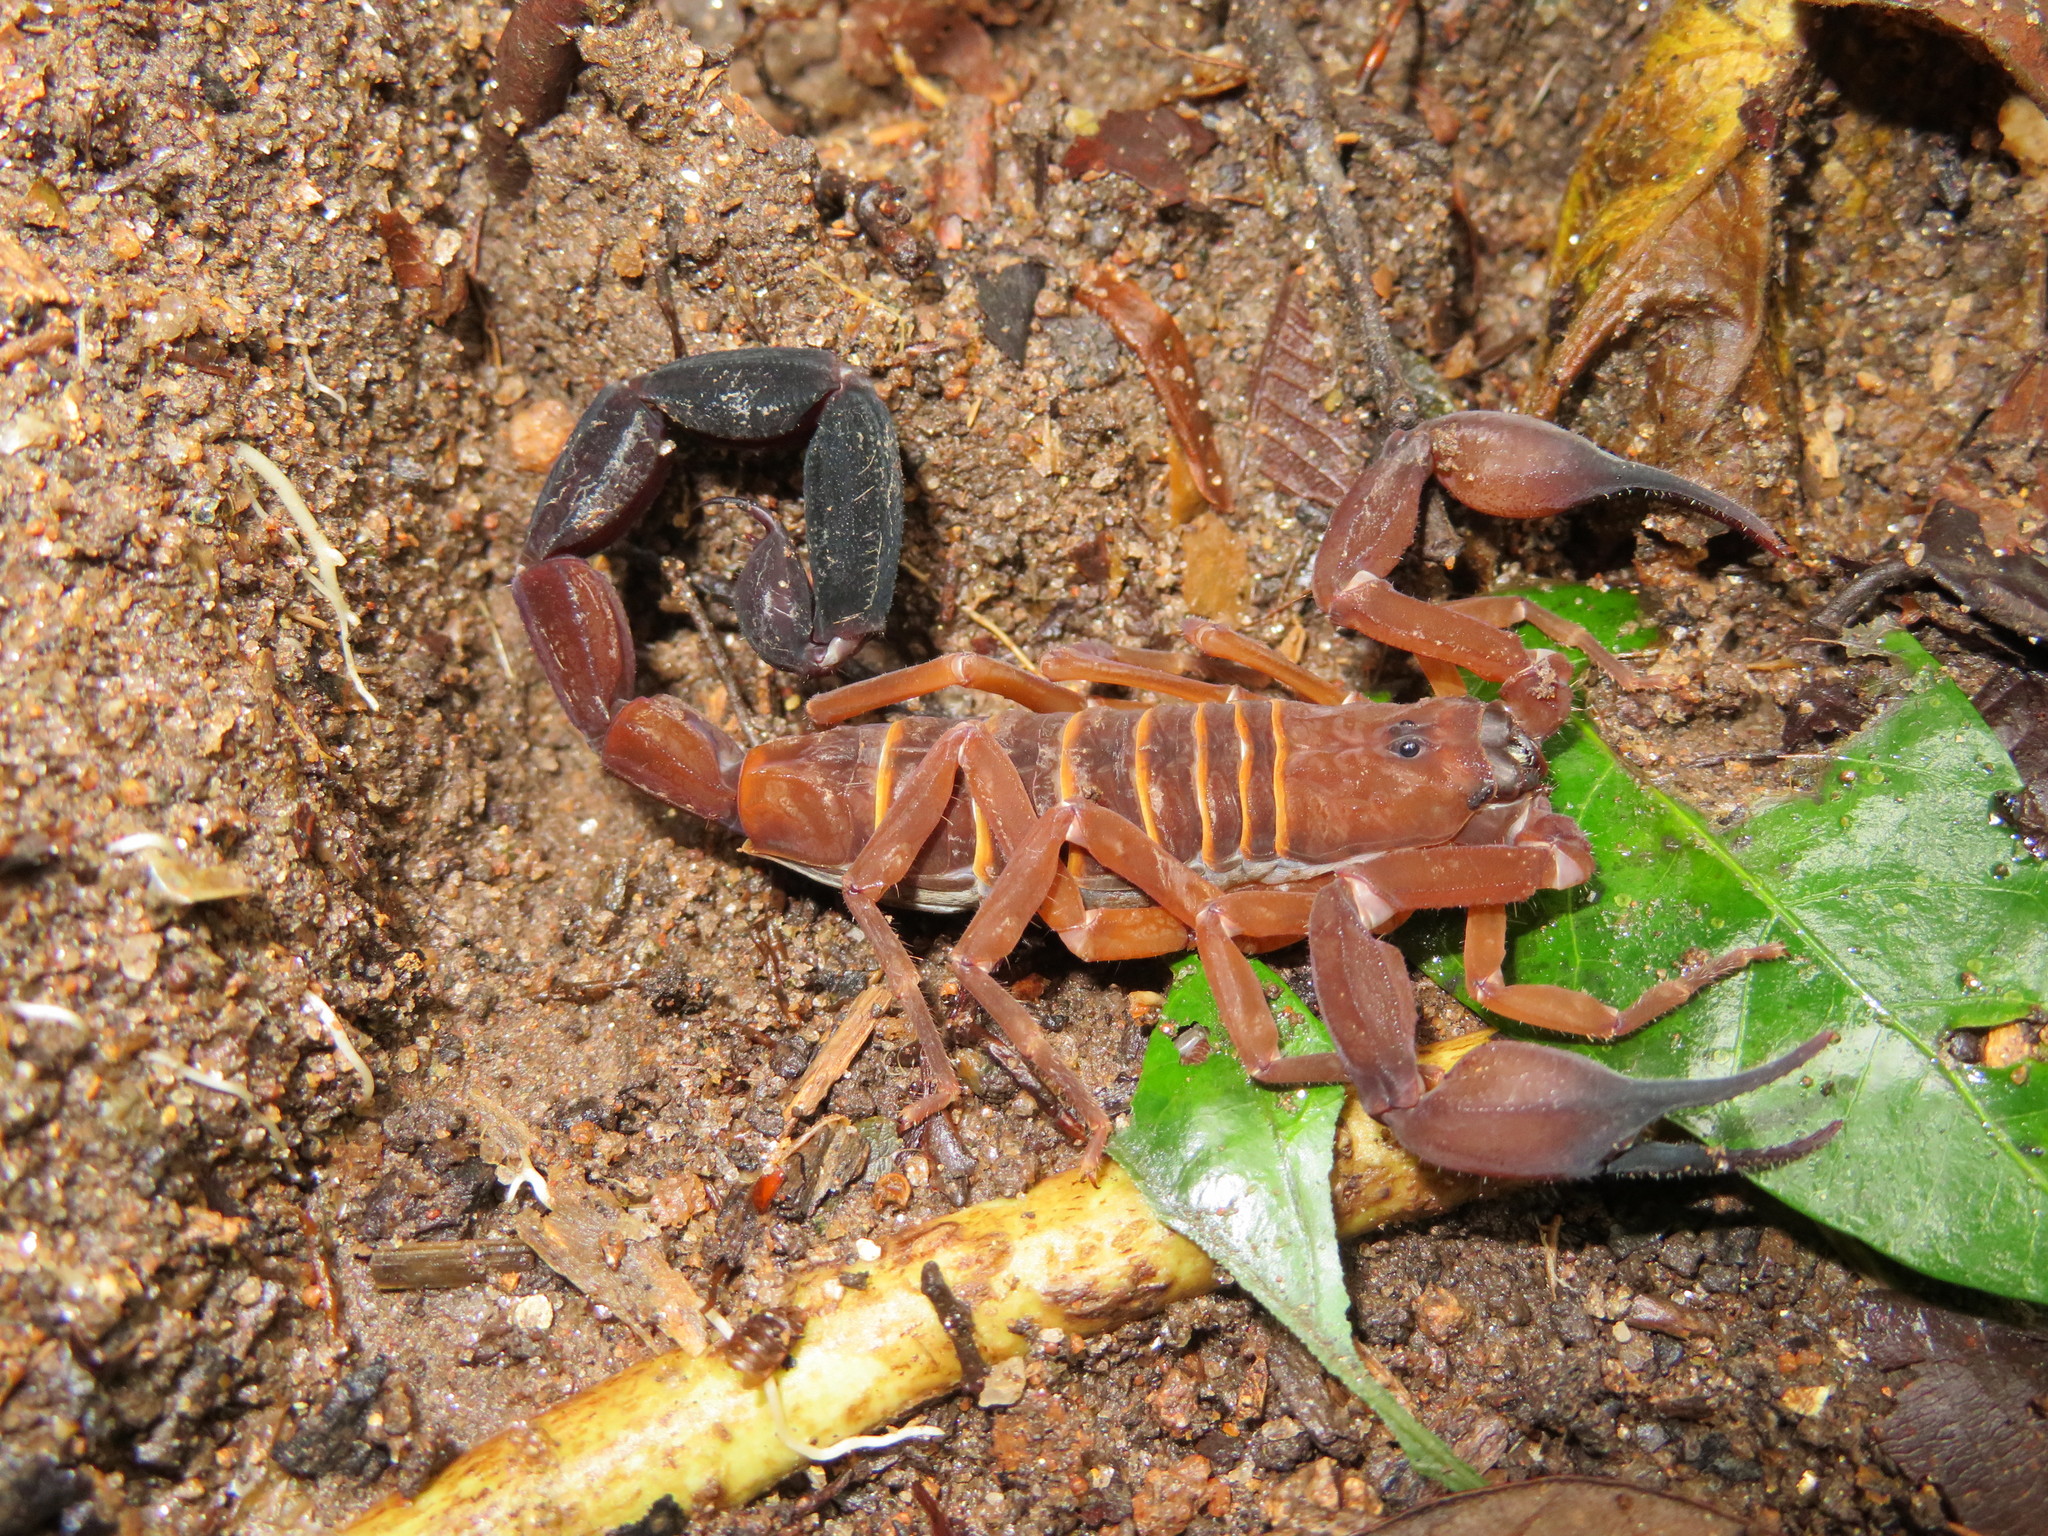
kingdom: Animalia
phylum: Arthropoda
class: Arachnida
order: Scorpiones
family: Buthidae
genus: Babycurus
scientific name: Babycurus gigas
